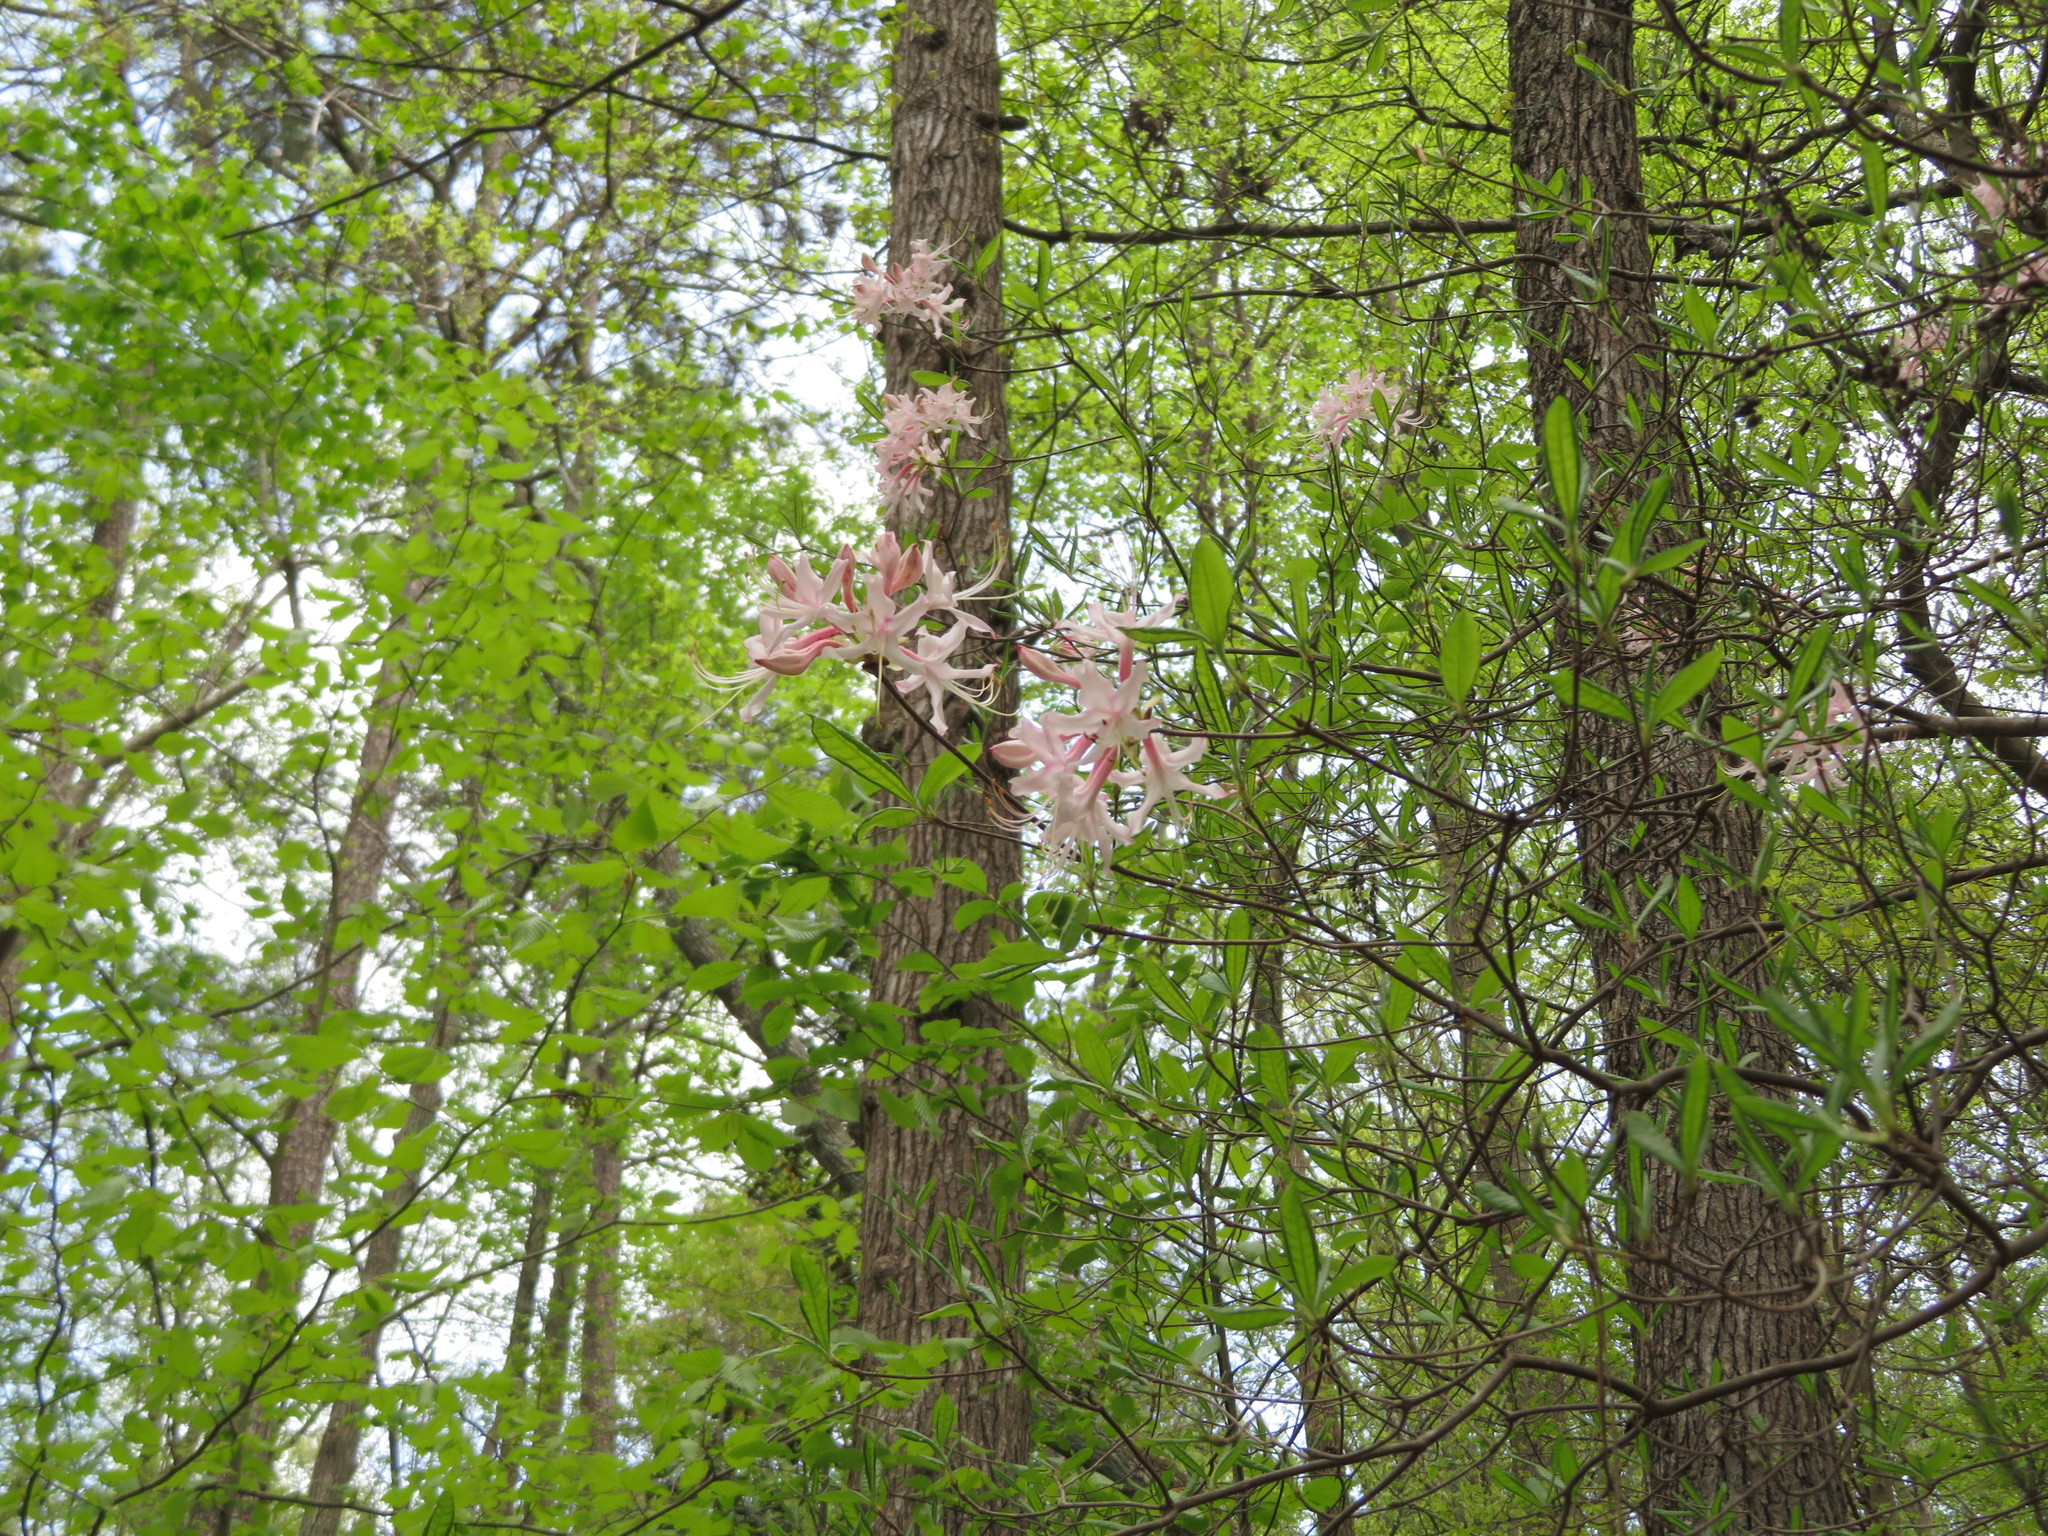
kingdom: Plantae
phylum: Tracheophyta
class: Magnoliopsida
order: Ericales
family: Ericaceae
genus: Rhododendron
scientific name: Rhododendron canescens
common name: Mountain azalea
